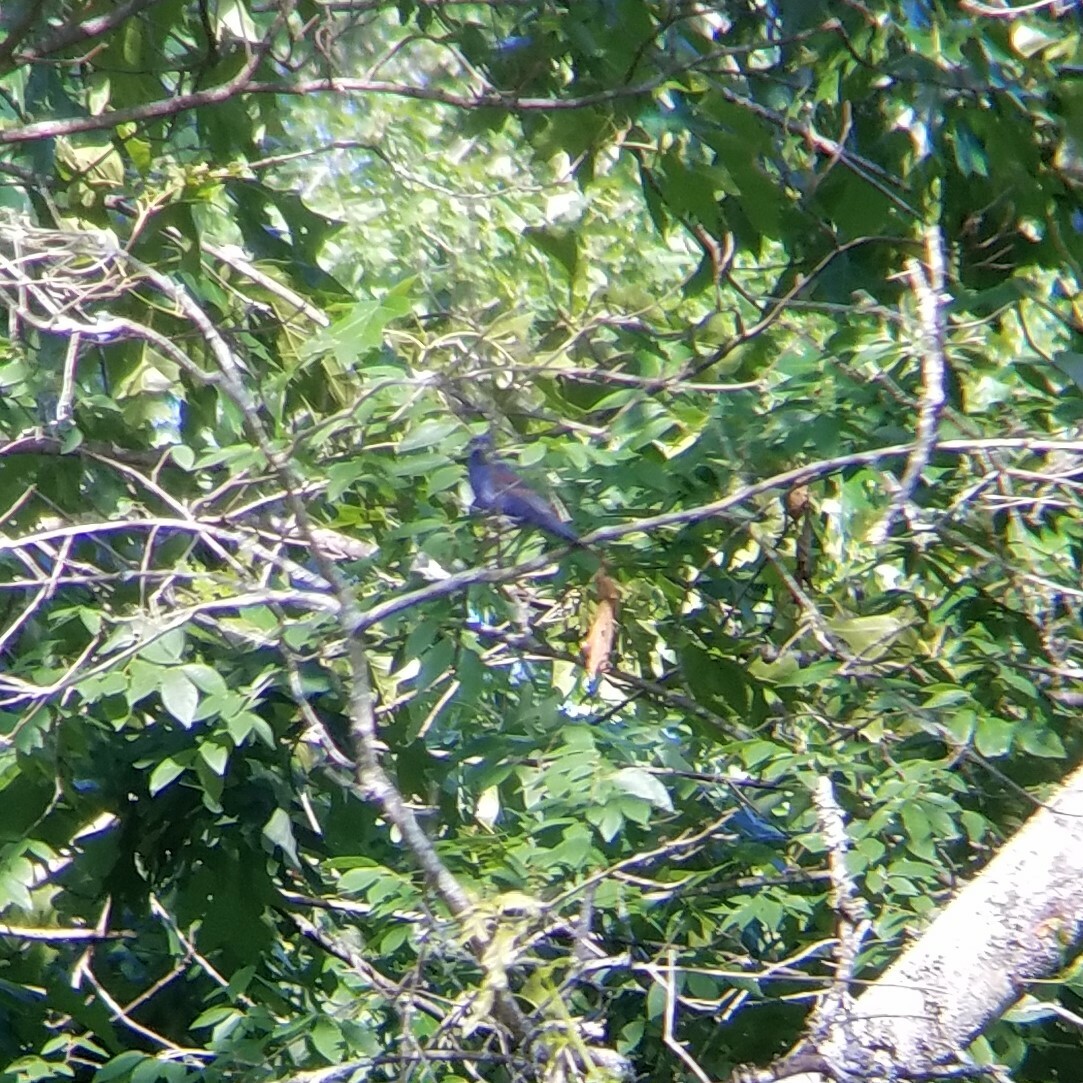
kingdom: Animalia
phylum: Chordata
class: Aves
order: Passeriformes
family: Cardinalidae
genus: Passerina
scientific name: Passerina caerulea
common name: Blue grosbeak
